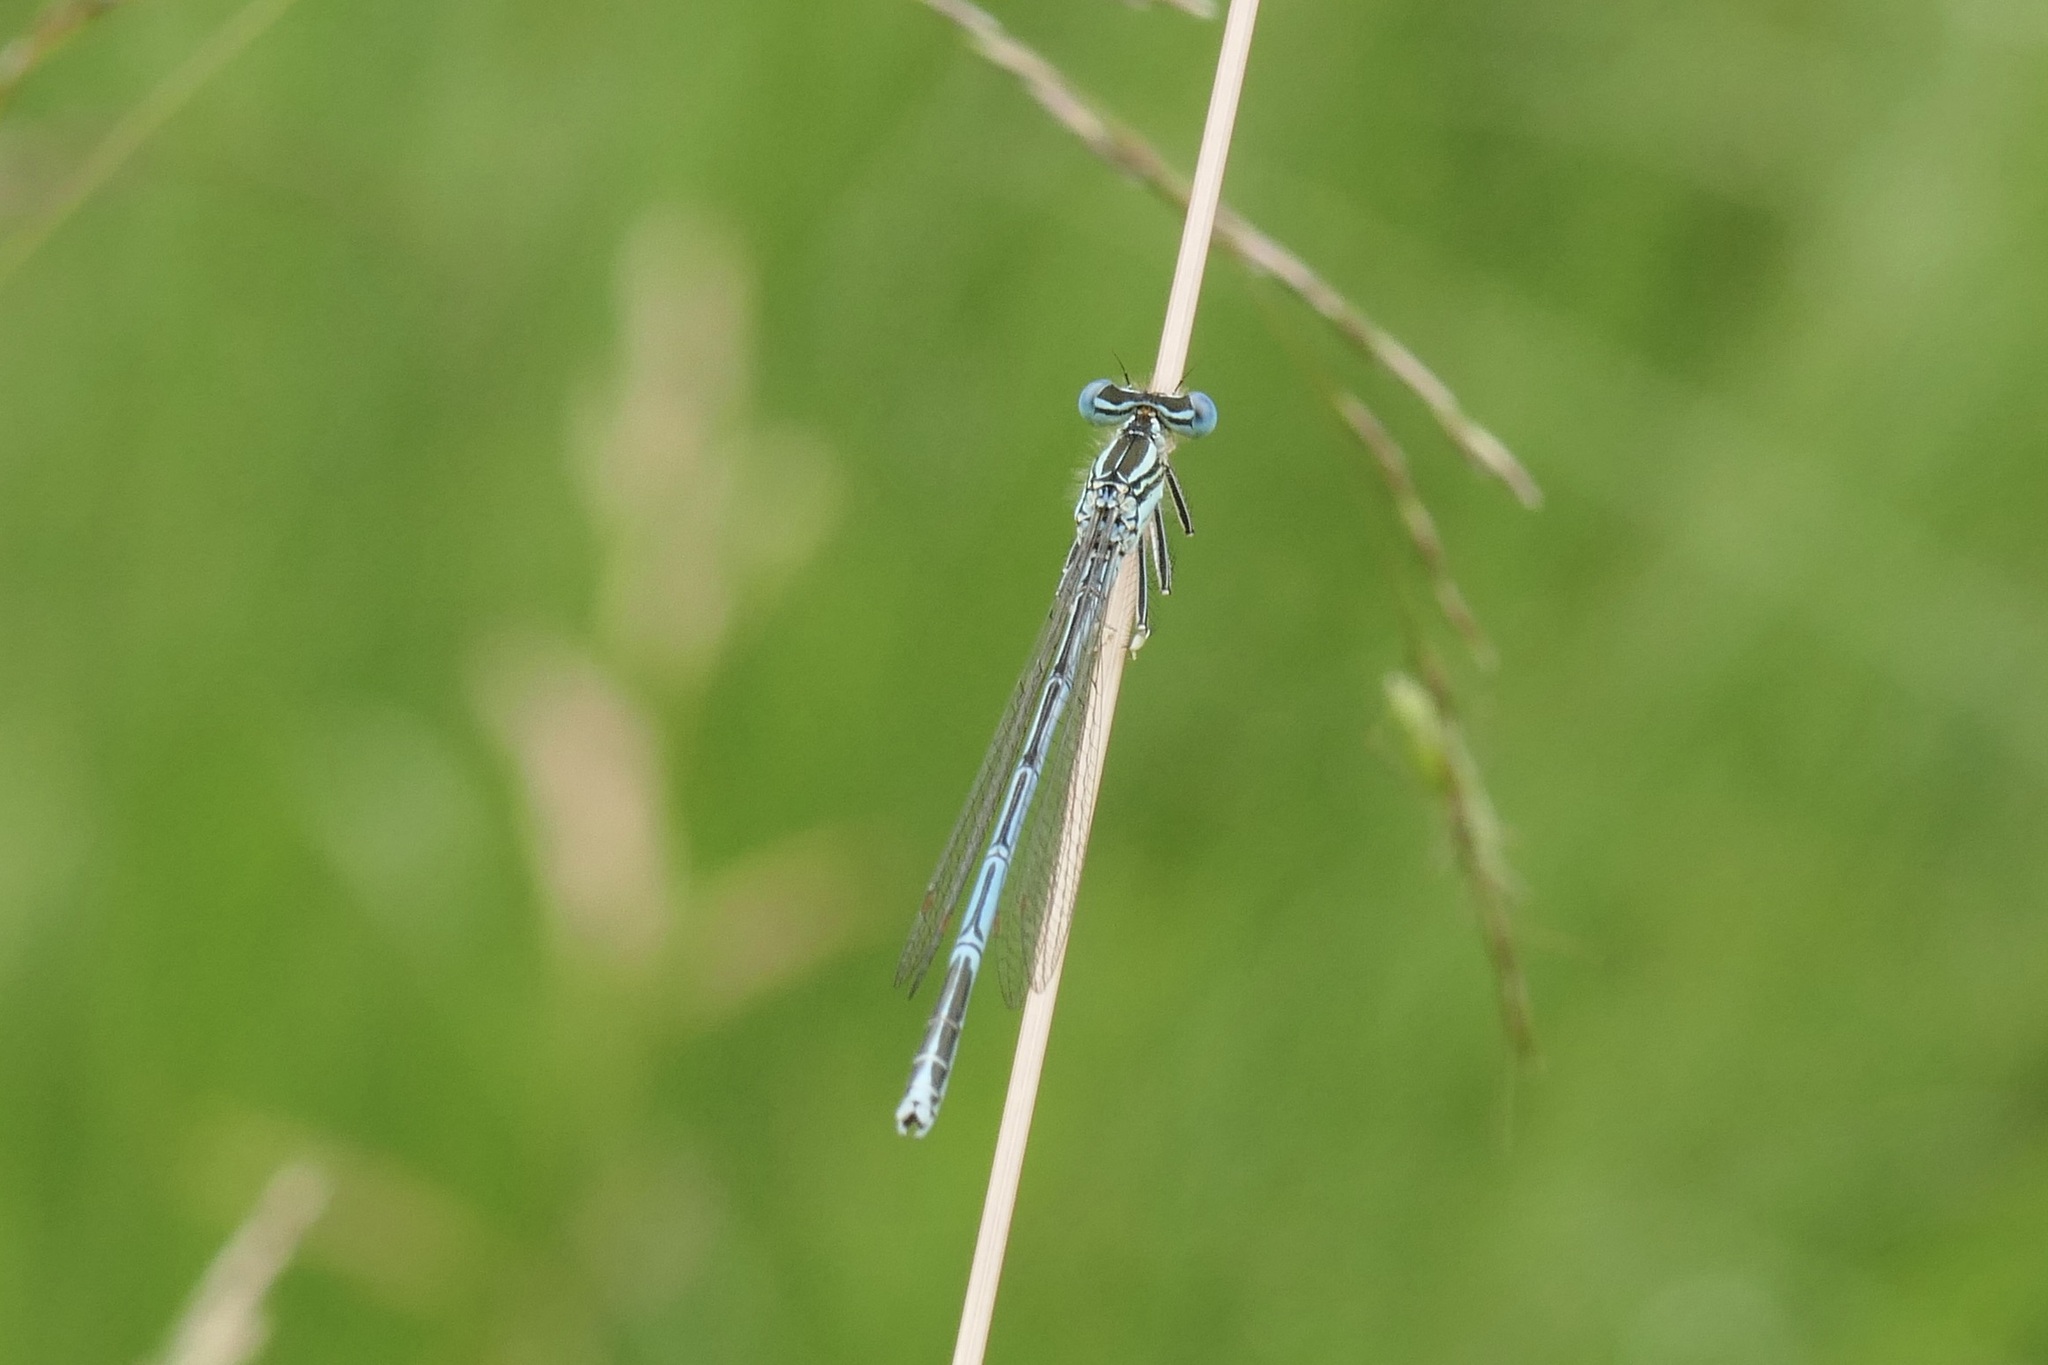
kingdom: Animalia
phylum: Arthropoda
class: Insecta
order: Odonata
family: Platycnemididae
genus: Platycnemis
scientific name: Platycnemis pennipes
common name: White-legged damselfly
